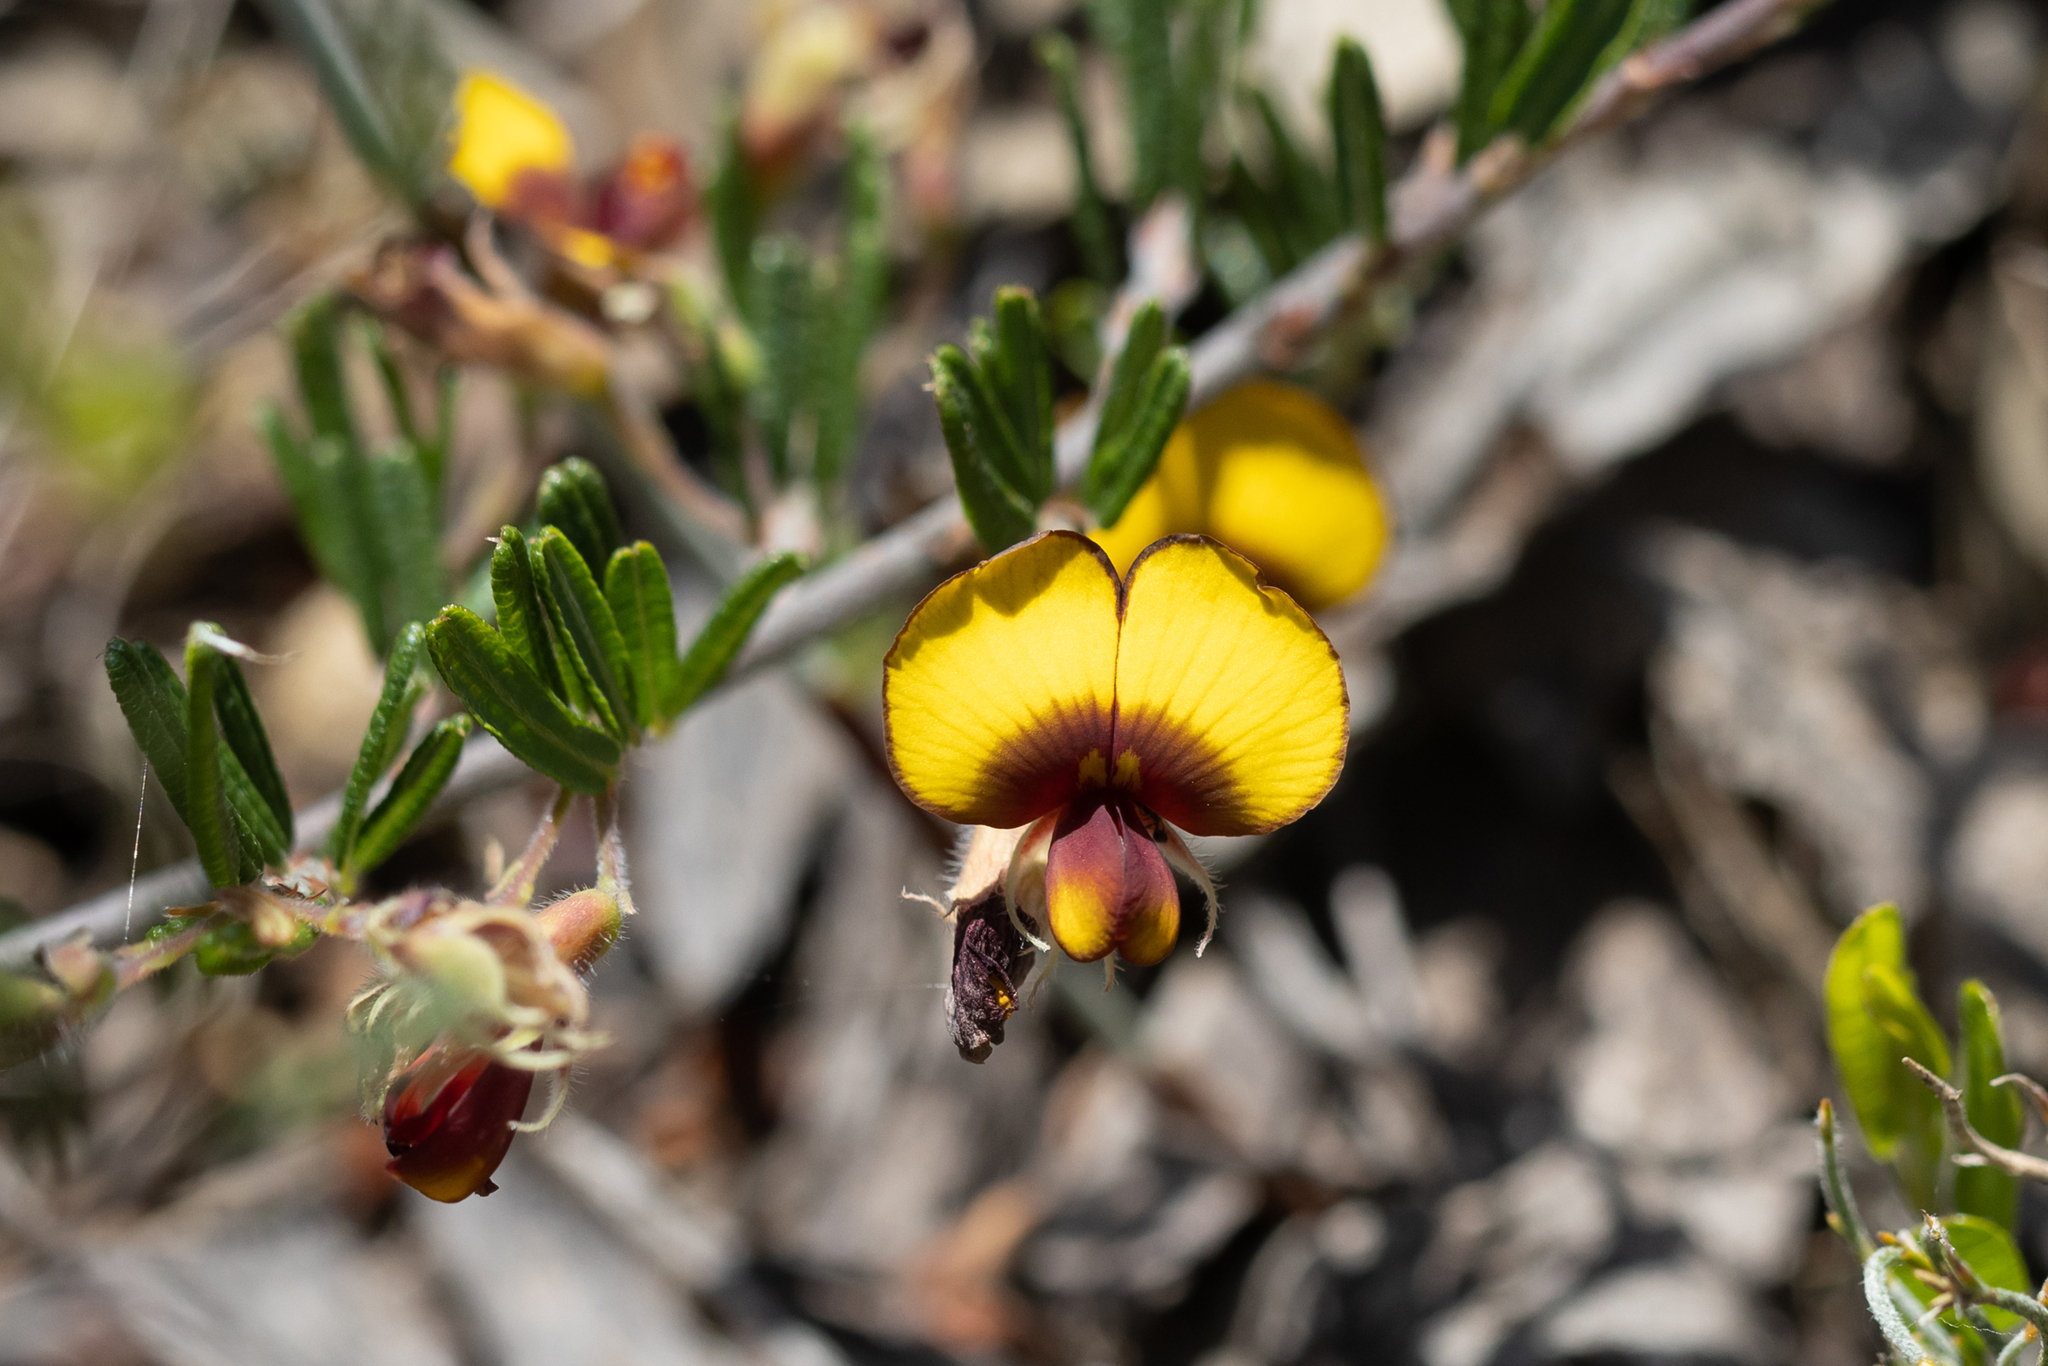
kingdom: Plantae
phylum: Tracheophyta
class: Magnoliopsida
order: Fabales
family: Fabaceae
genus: Bossiaea
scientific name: Bossiaea eriocarpa
